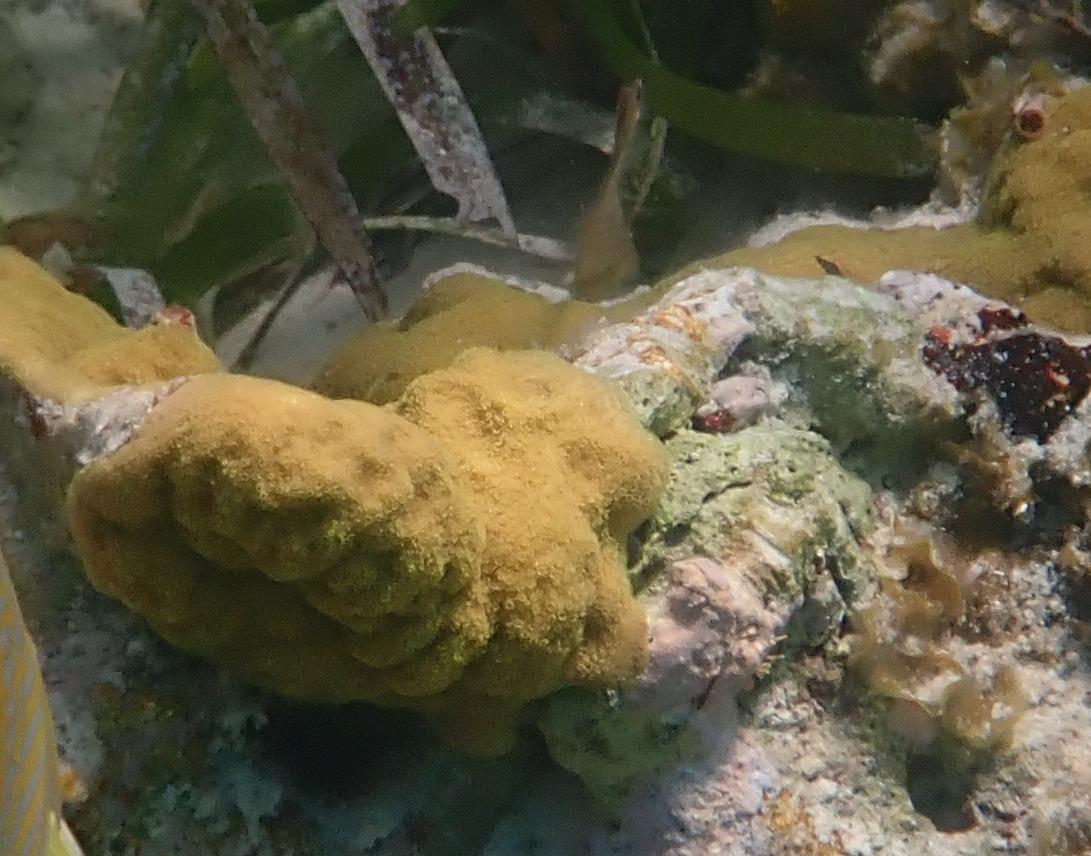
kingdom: Animalia
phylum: Cnidaria
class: Anthozoa
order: Scleractinia
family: Poritidae
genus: Porites
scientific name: Porites astreoides
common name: Mustard hill coral
